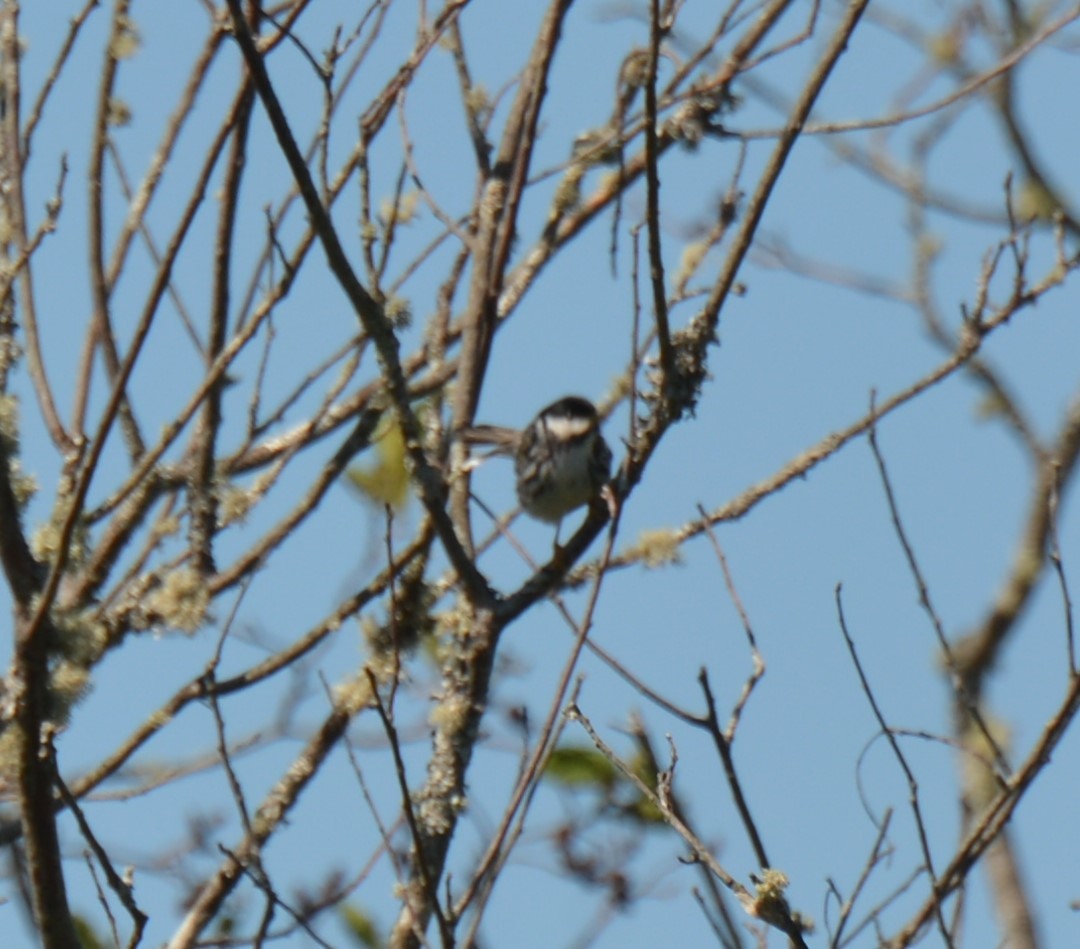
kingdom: Animalia
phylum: Chordata
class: Aves
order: Passeriformes
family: Parulidae
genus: Setophaga
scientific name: Setophaga striata
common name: Blackpoll warbler
